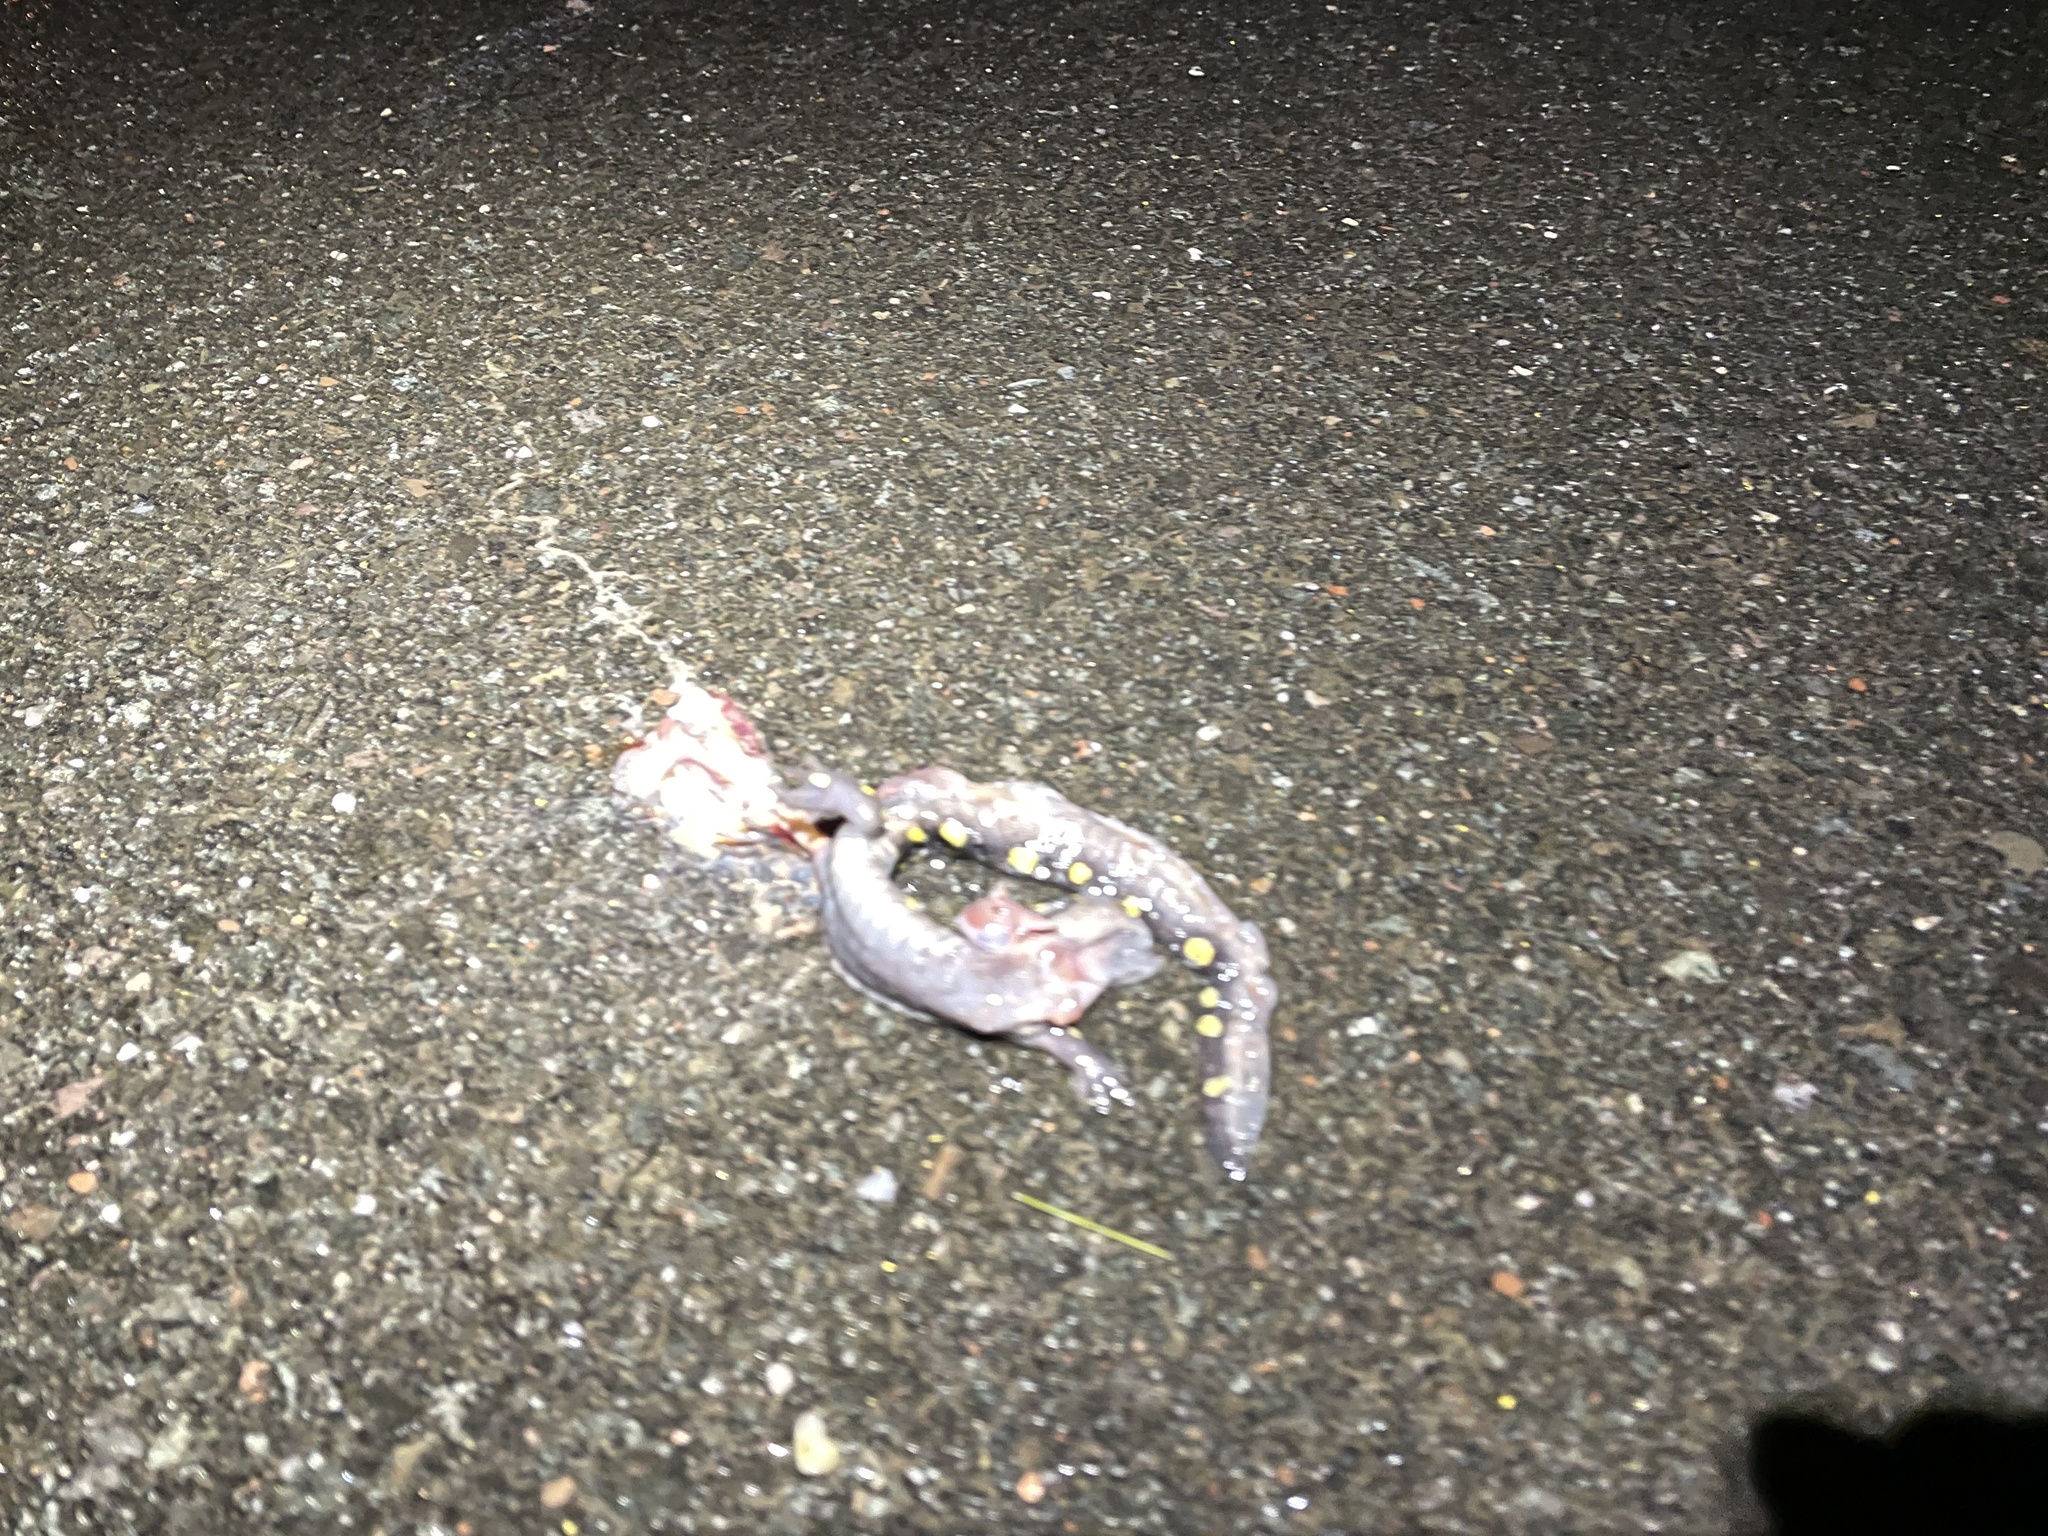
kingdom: Animalia
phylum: Chordata
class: Amphibia
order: Caudata
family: Ambystomatidae
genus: Ambystoma
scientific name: Ambystoma maculatum
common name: Spotted salamander
